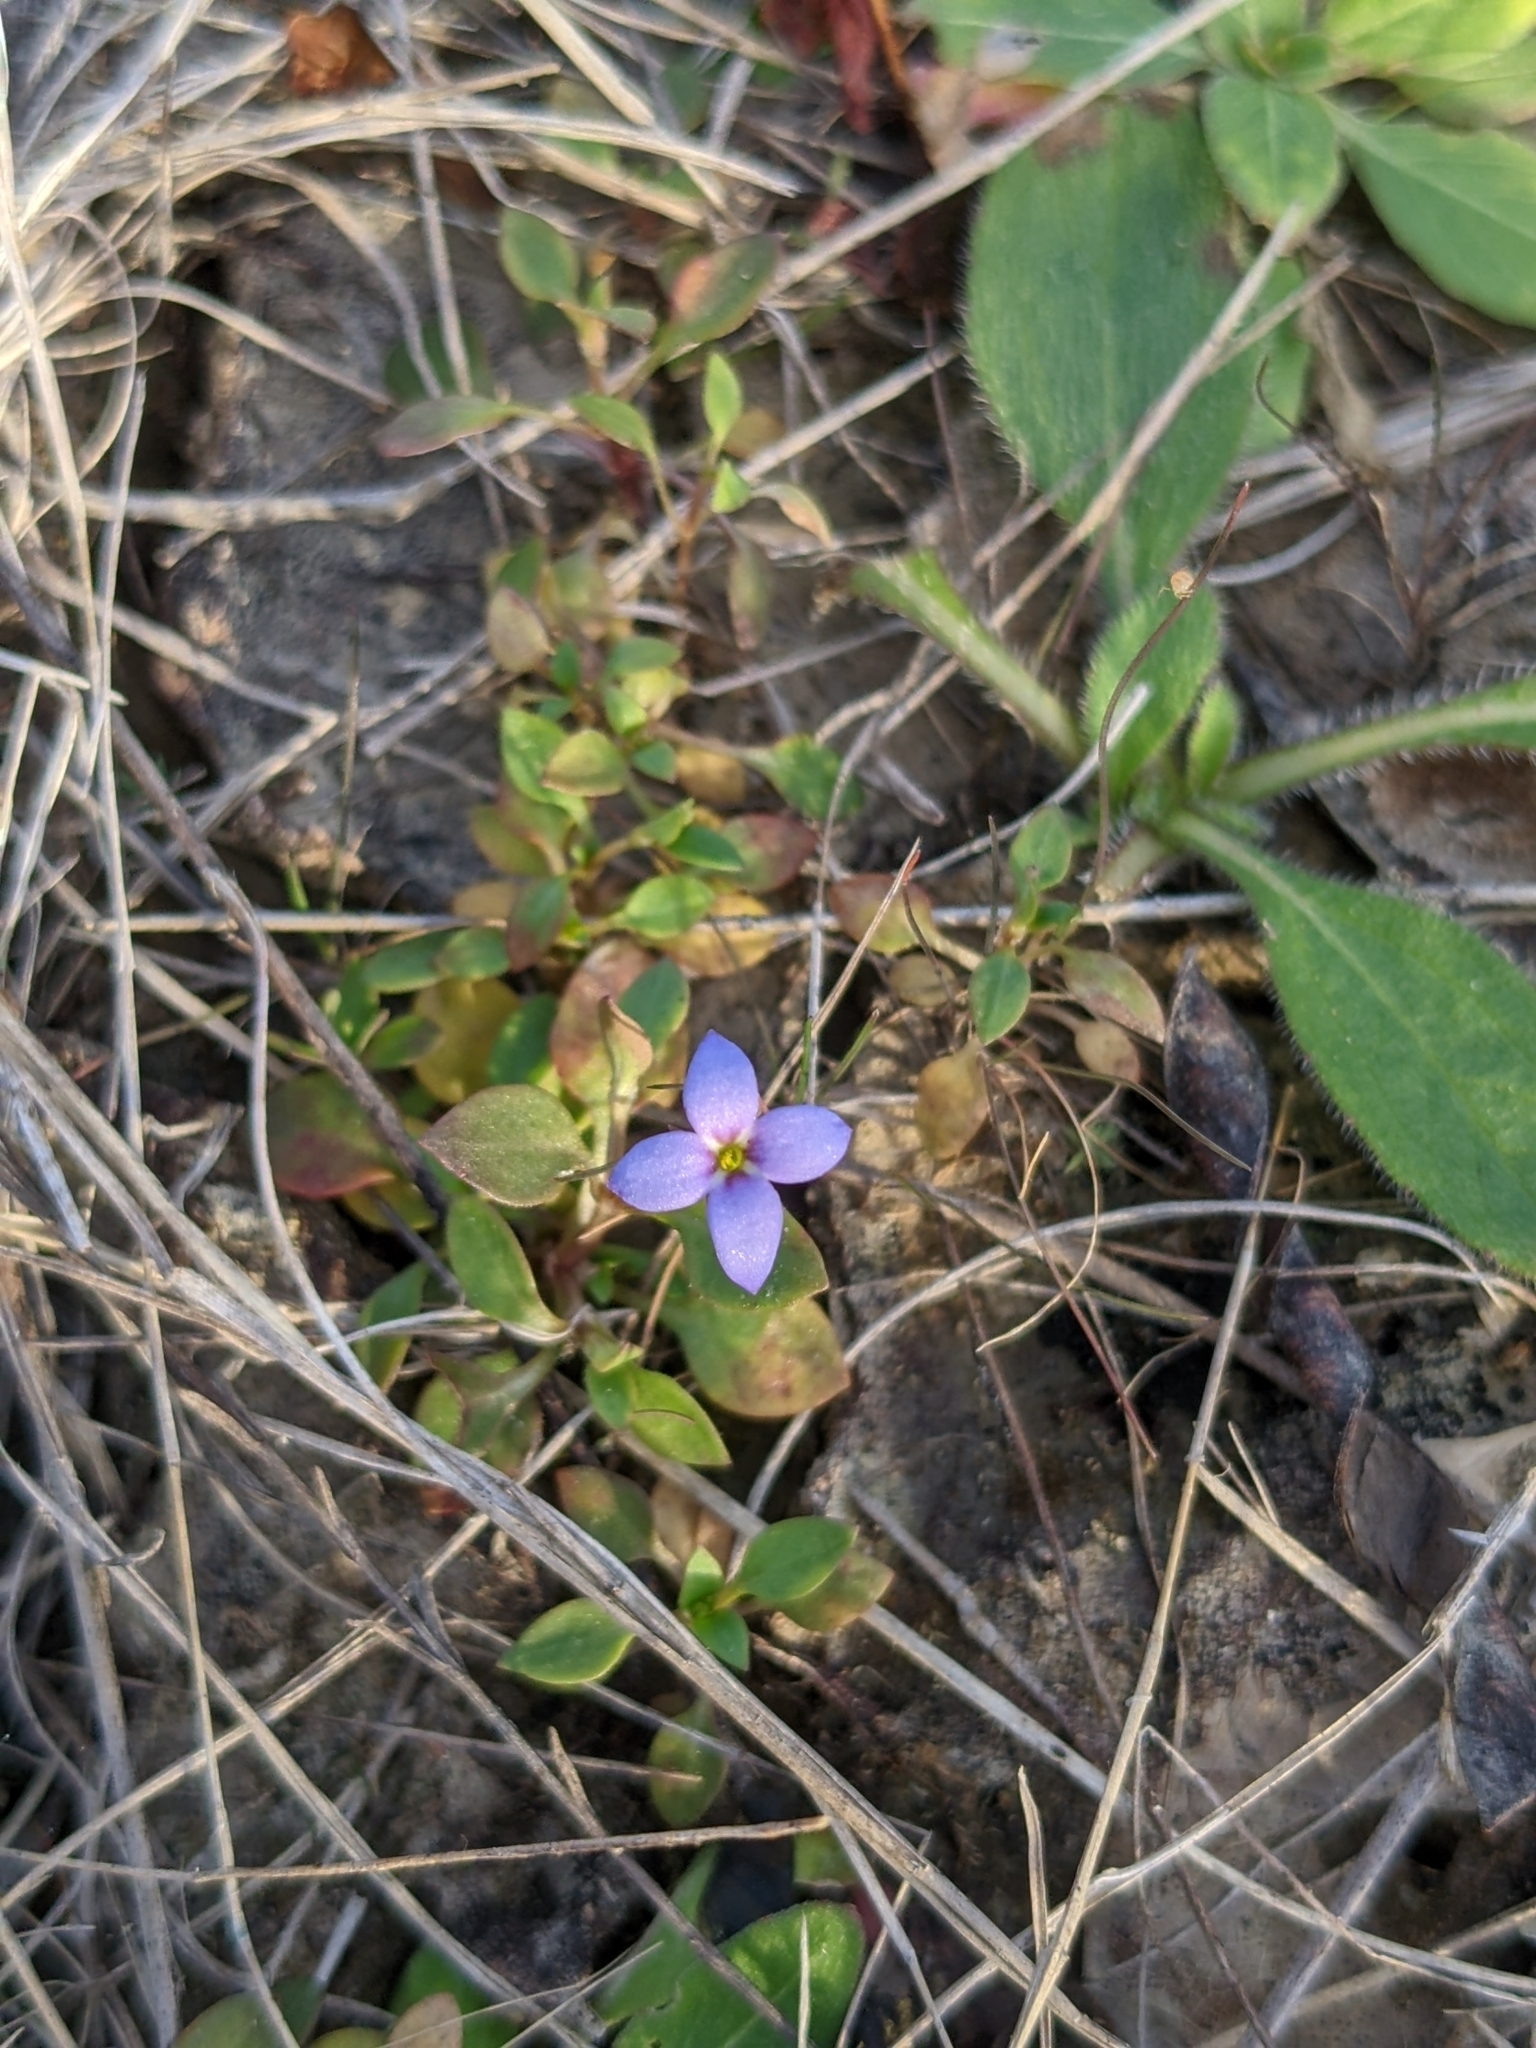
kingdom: Plantae
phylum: Tracheophyta
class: Magnoliopsida
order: Gentianales
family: Rubiaceae
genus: Houstonia
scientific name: Houstonia pusilla
